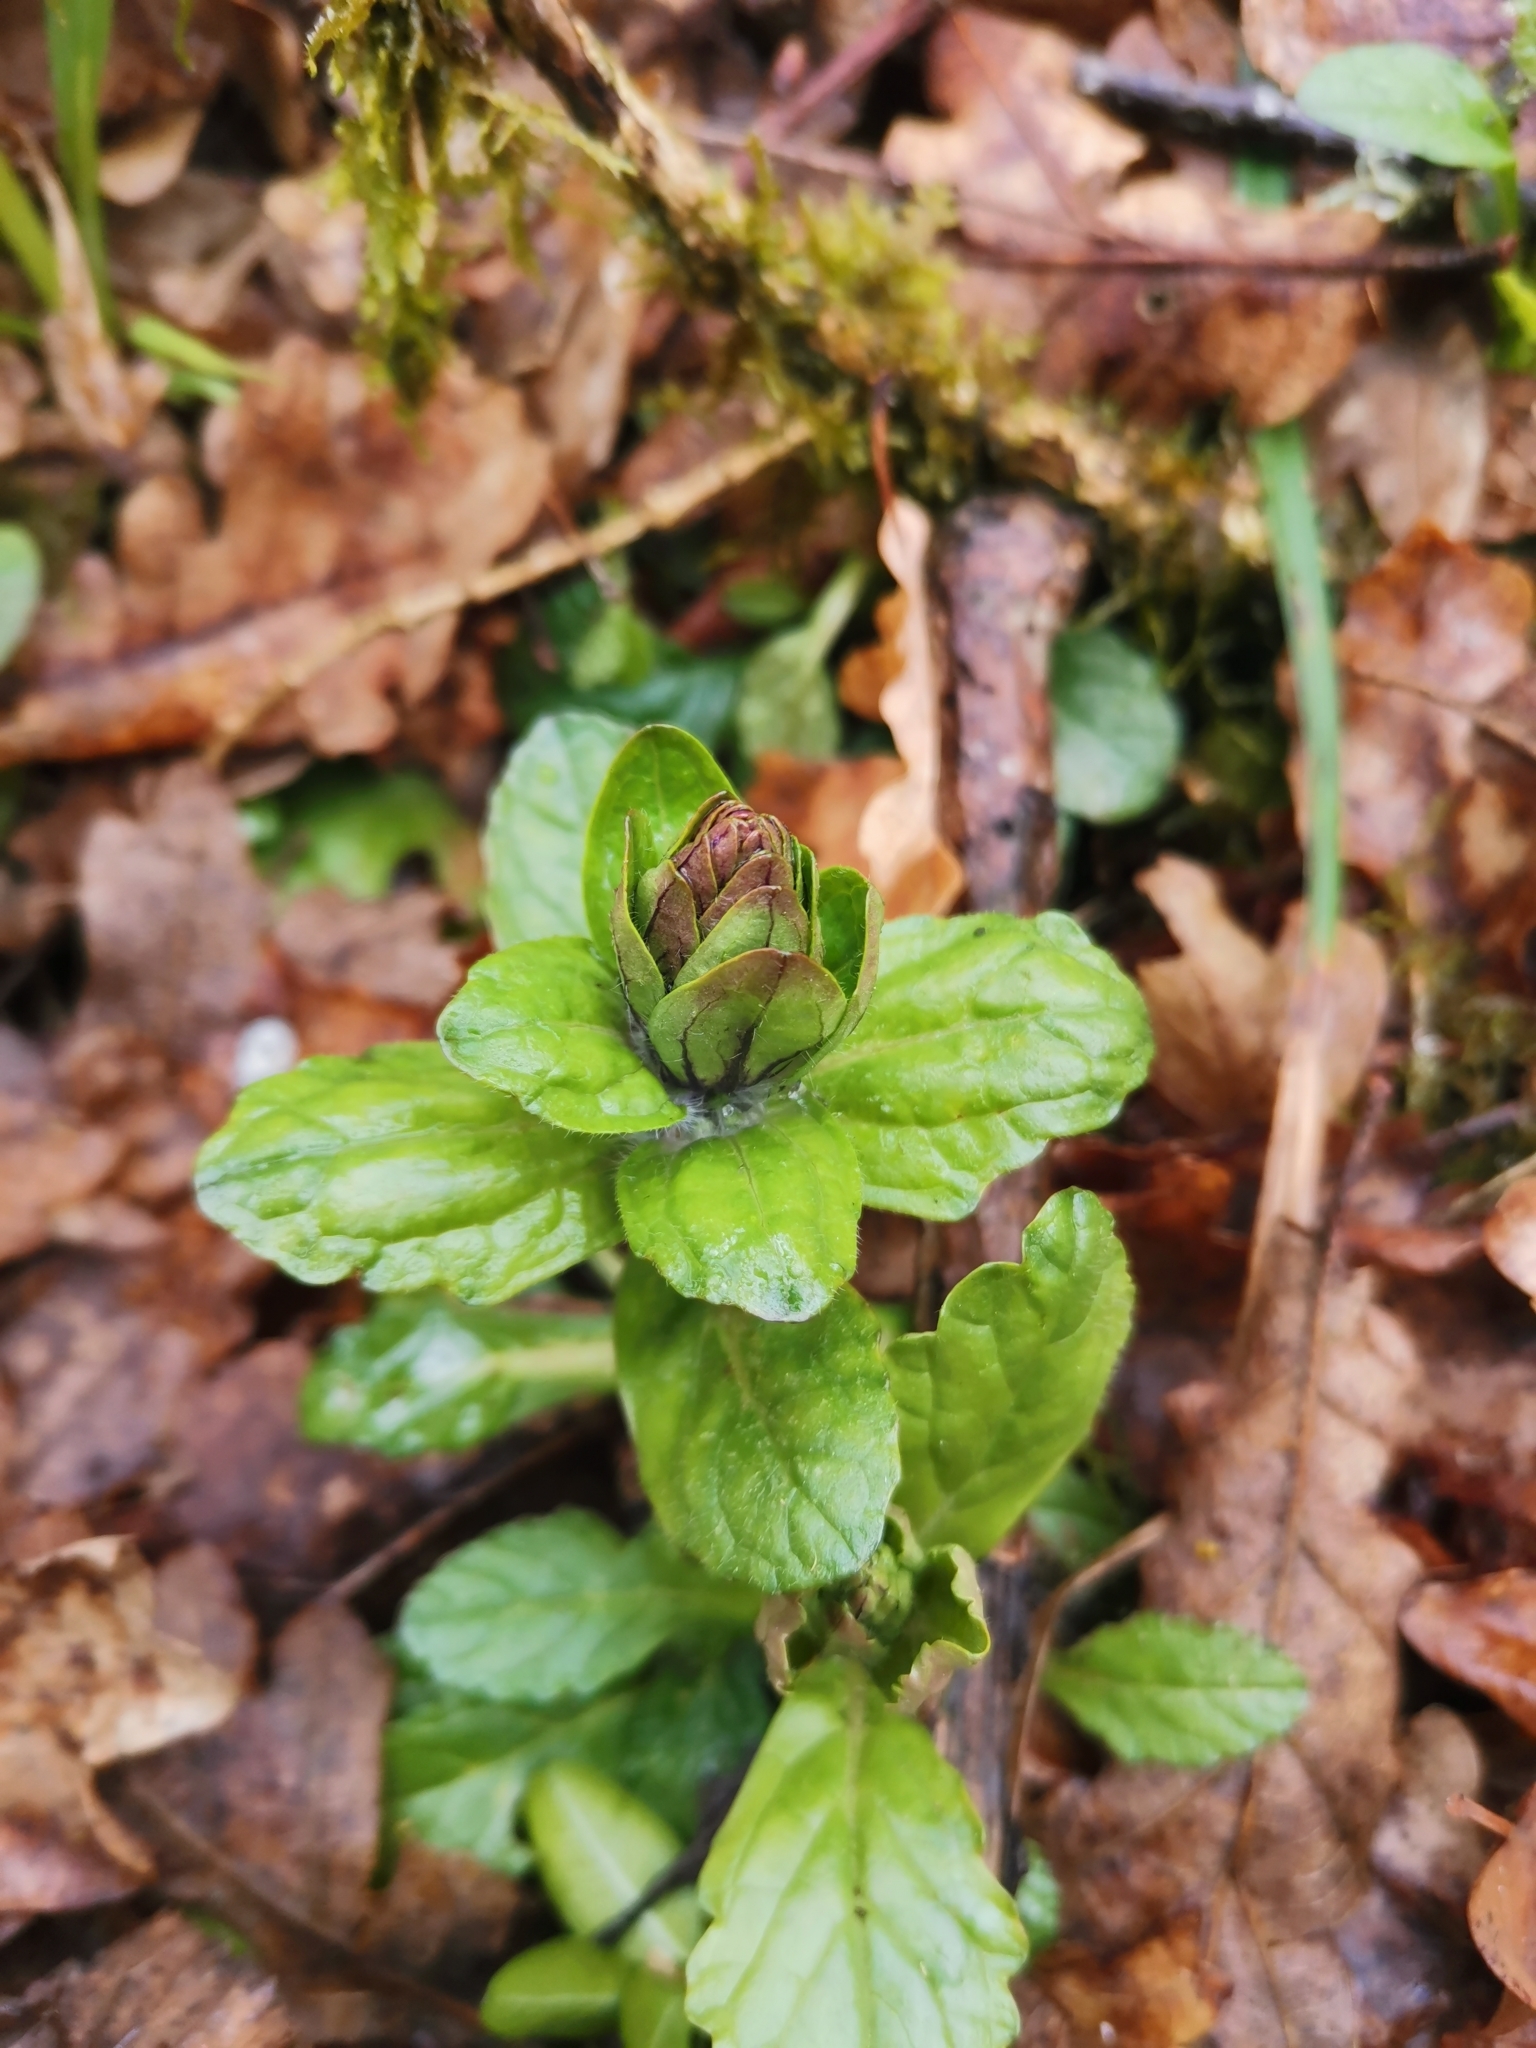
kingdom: Plantae
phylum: Tracheophyta
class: Magnoliopsida
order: Lamiales
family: Lamiaceae
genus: Ajuga
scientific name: Ajuga reptans
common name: Bugle
